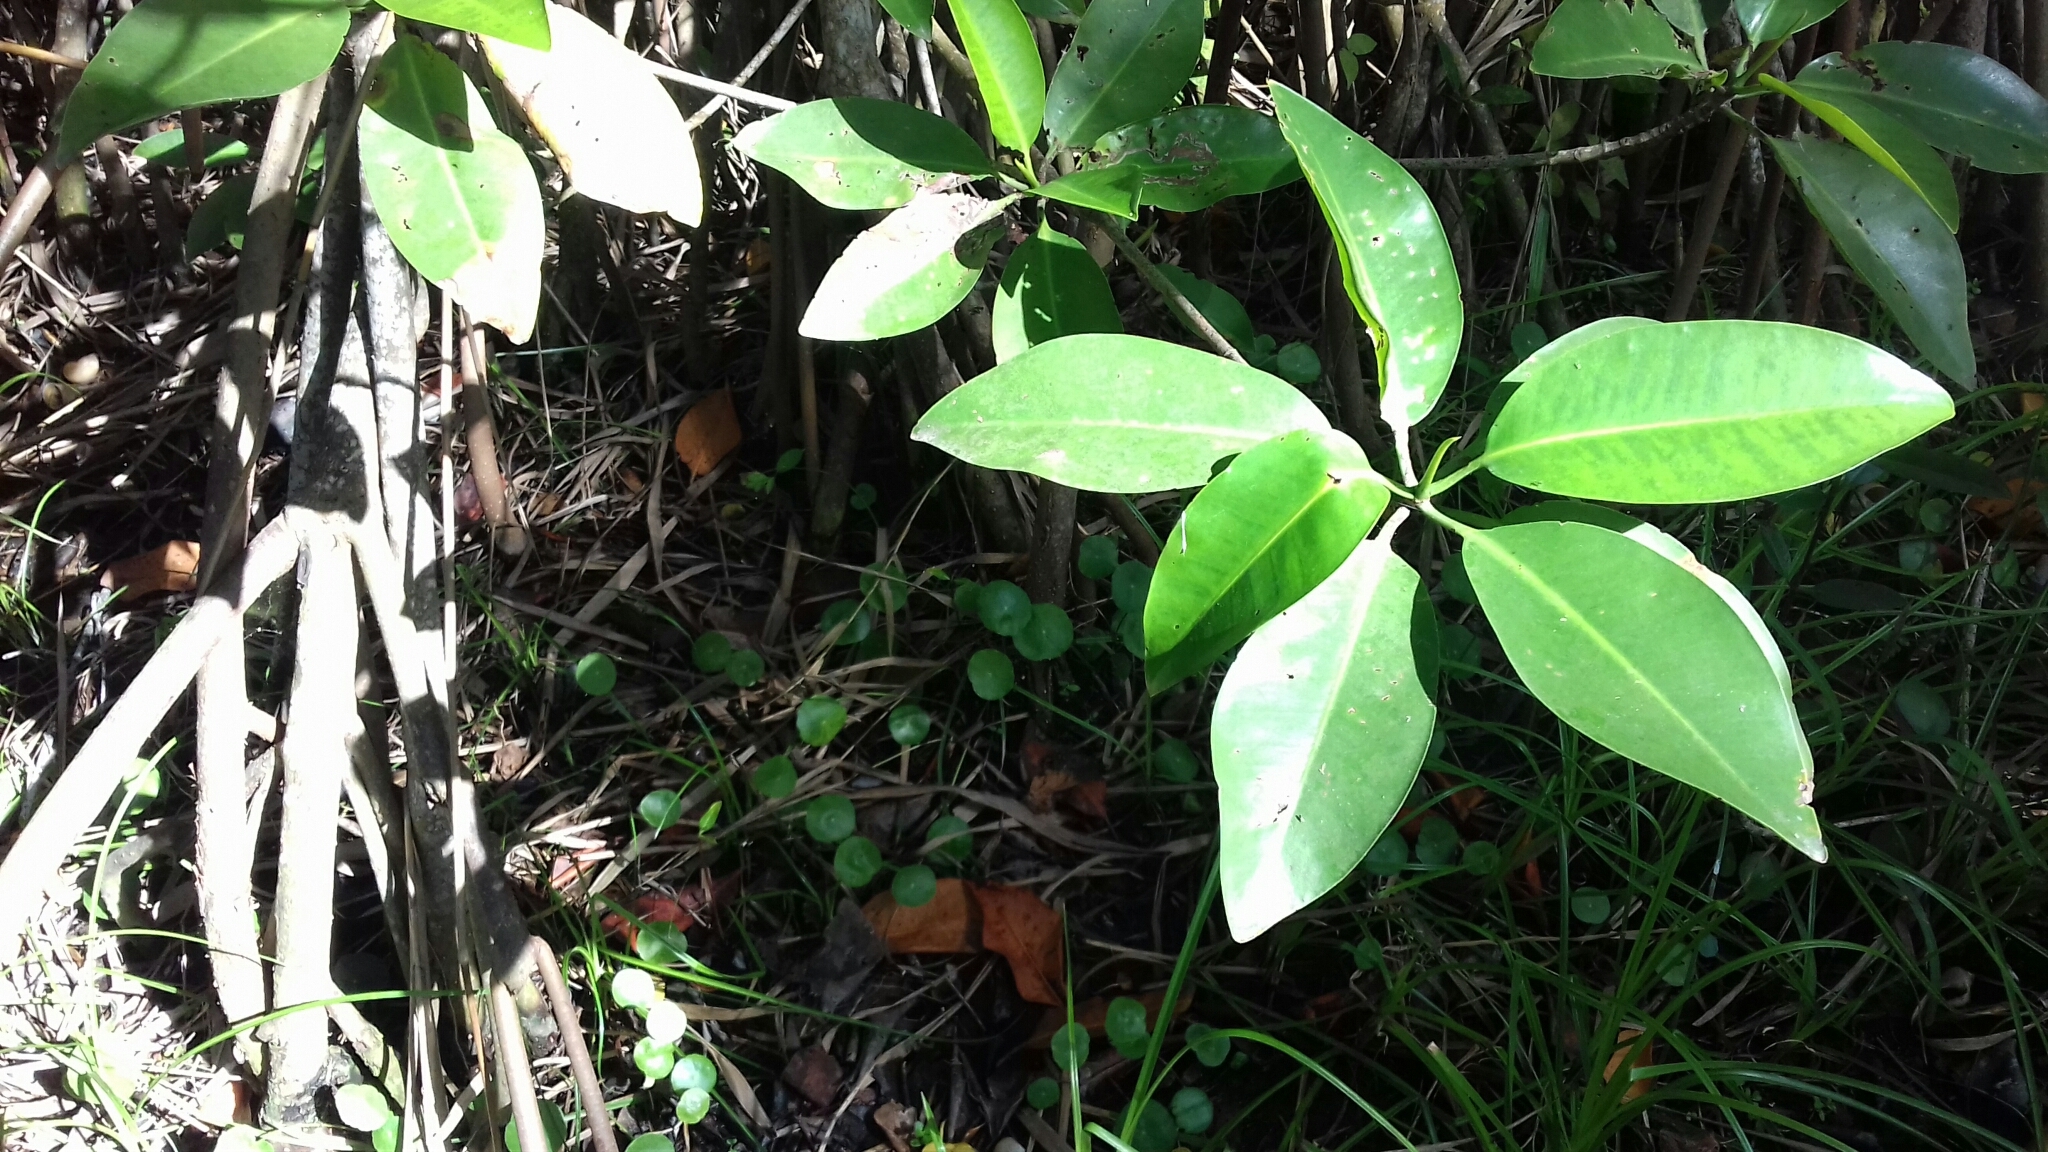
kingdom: Plantae
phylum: Tracheophyta
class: Magnoliopsida
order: Malpighiales
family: Rhizophoraceae
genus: Rhizophora
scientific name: Rhizophora mangle
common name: Red mangrove
